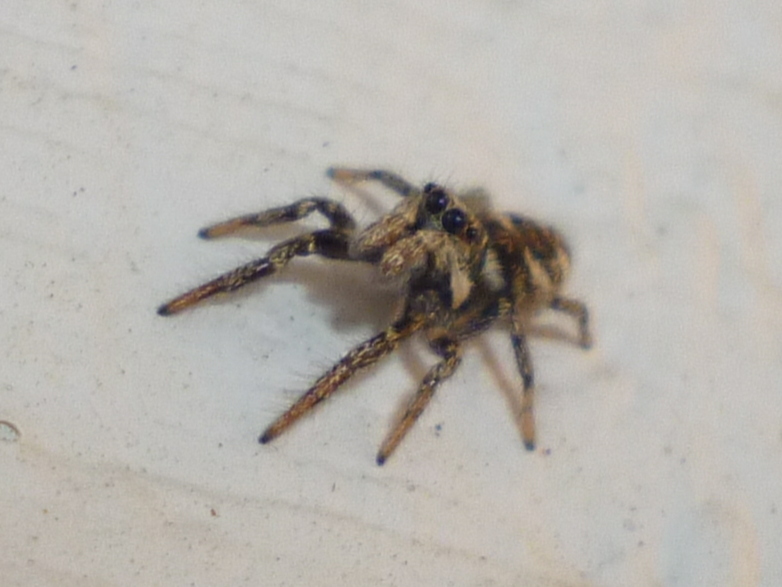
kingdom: Animalia
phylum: Arthropoda
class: Arachnida
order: Araneae
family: Salticidae
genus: Salticus
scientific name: Salticus scenicus
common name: Zebra jumper
